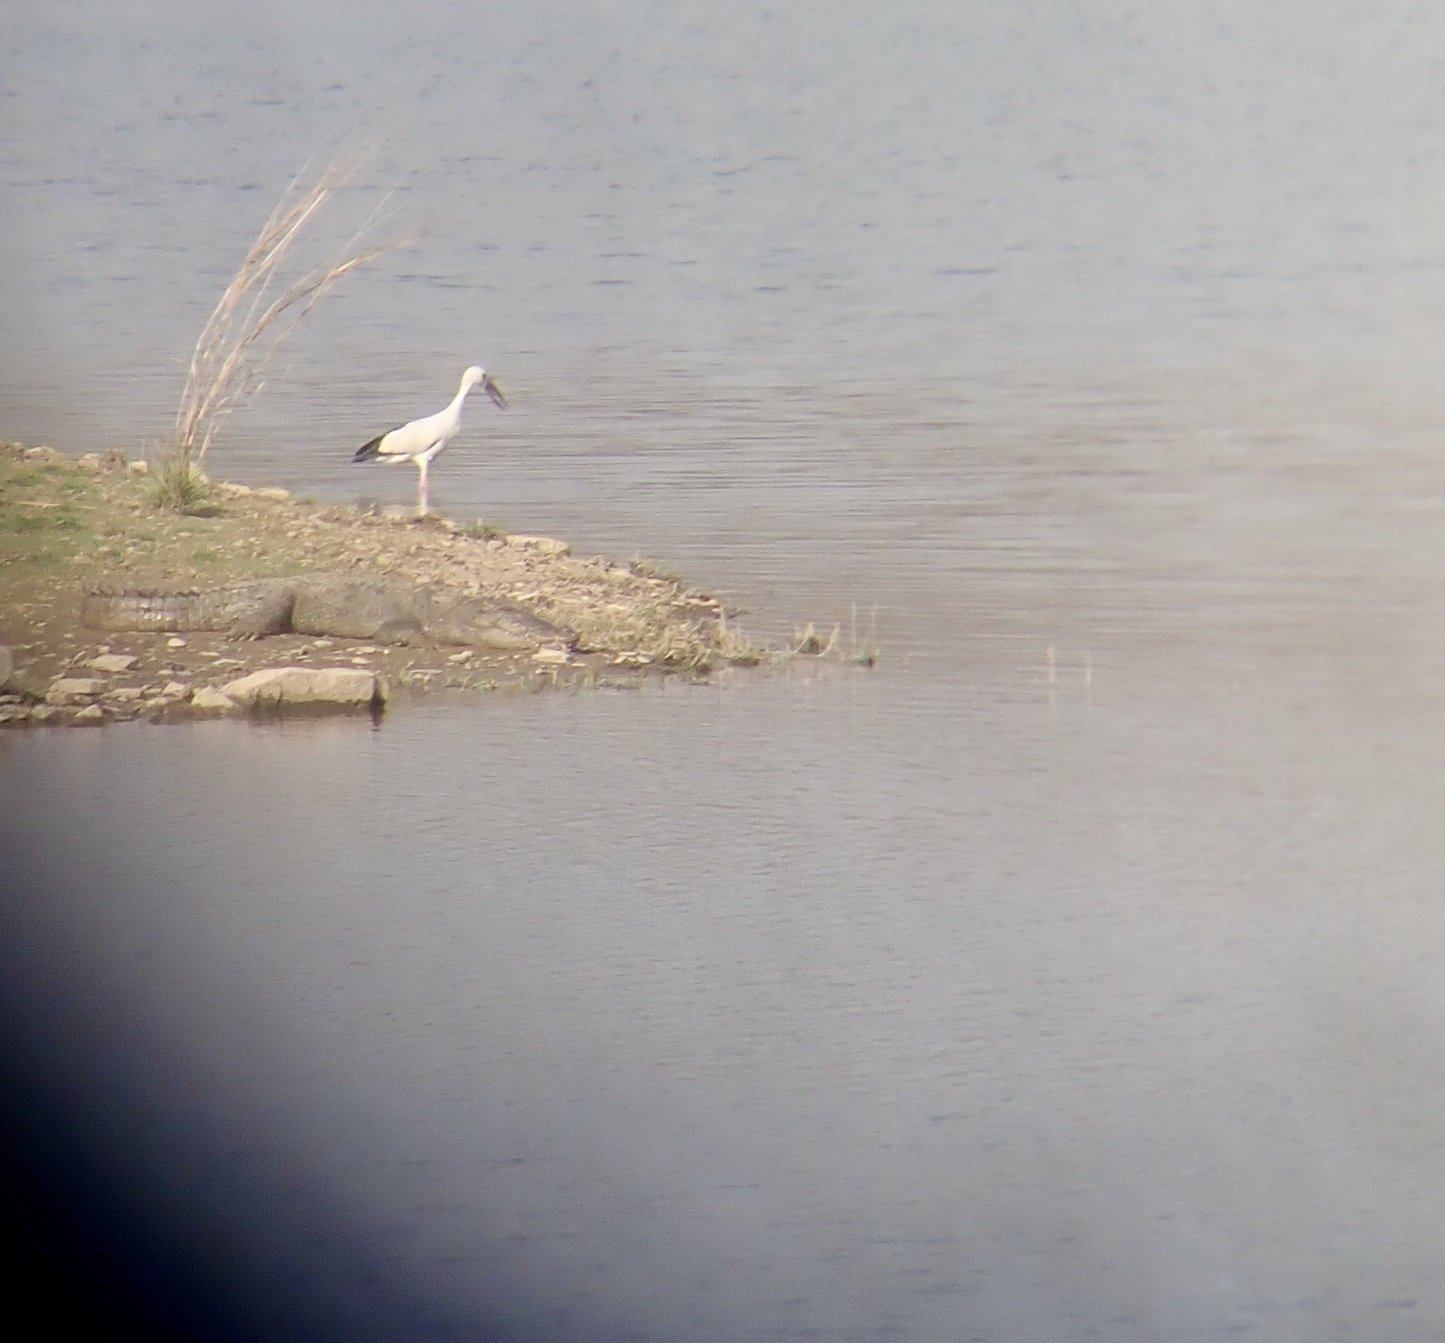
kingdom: Animalia
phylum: Chordata
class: Aves
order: Ciconiiformes
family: Ciconiidae
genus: Anastomus
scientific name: Anastomus oscitans
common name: Asian openbill
